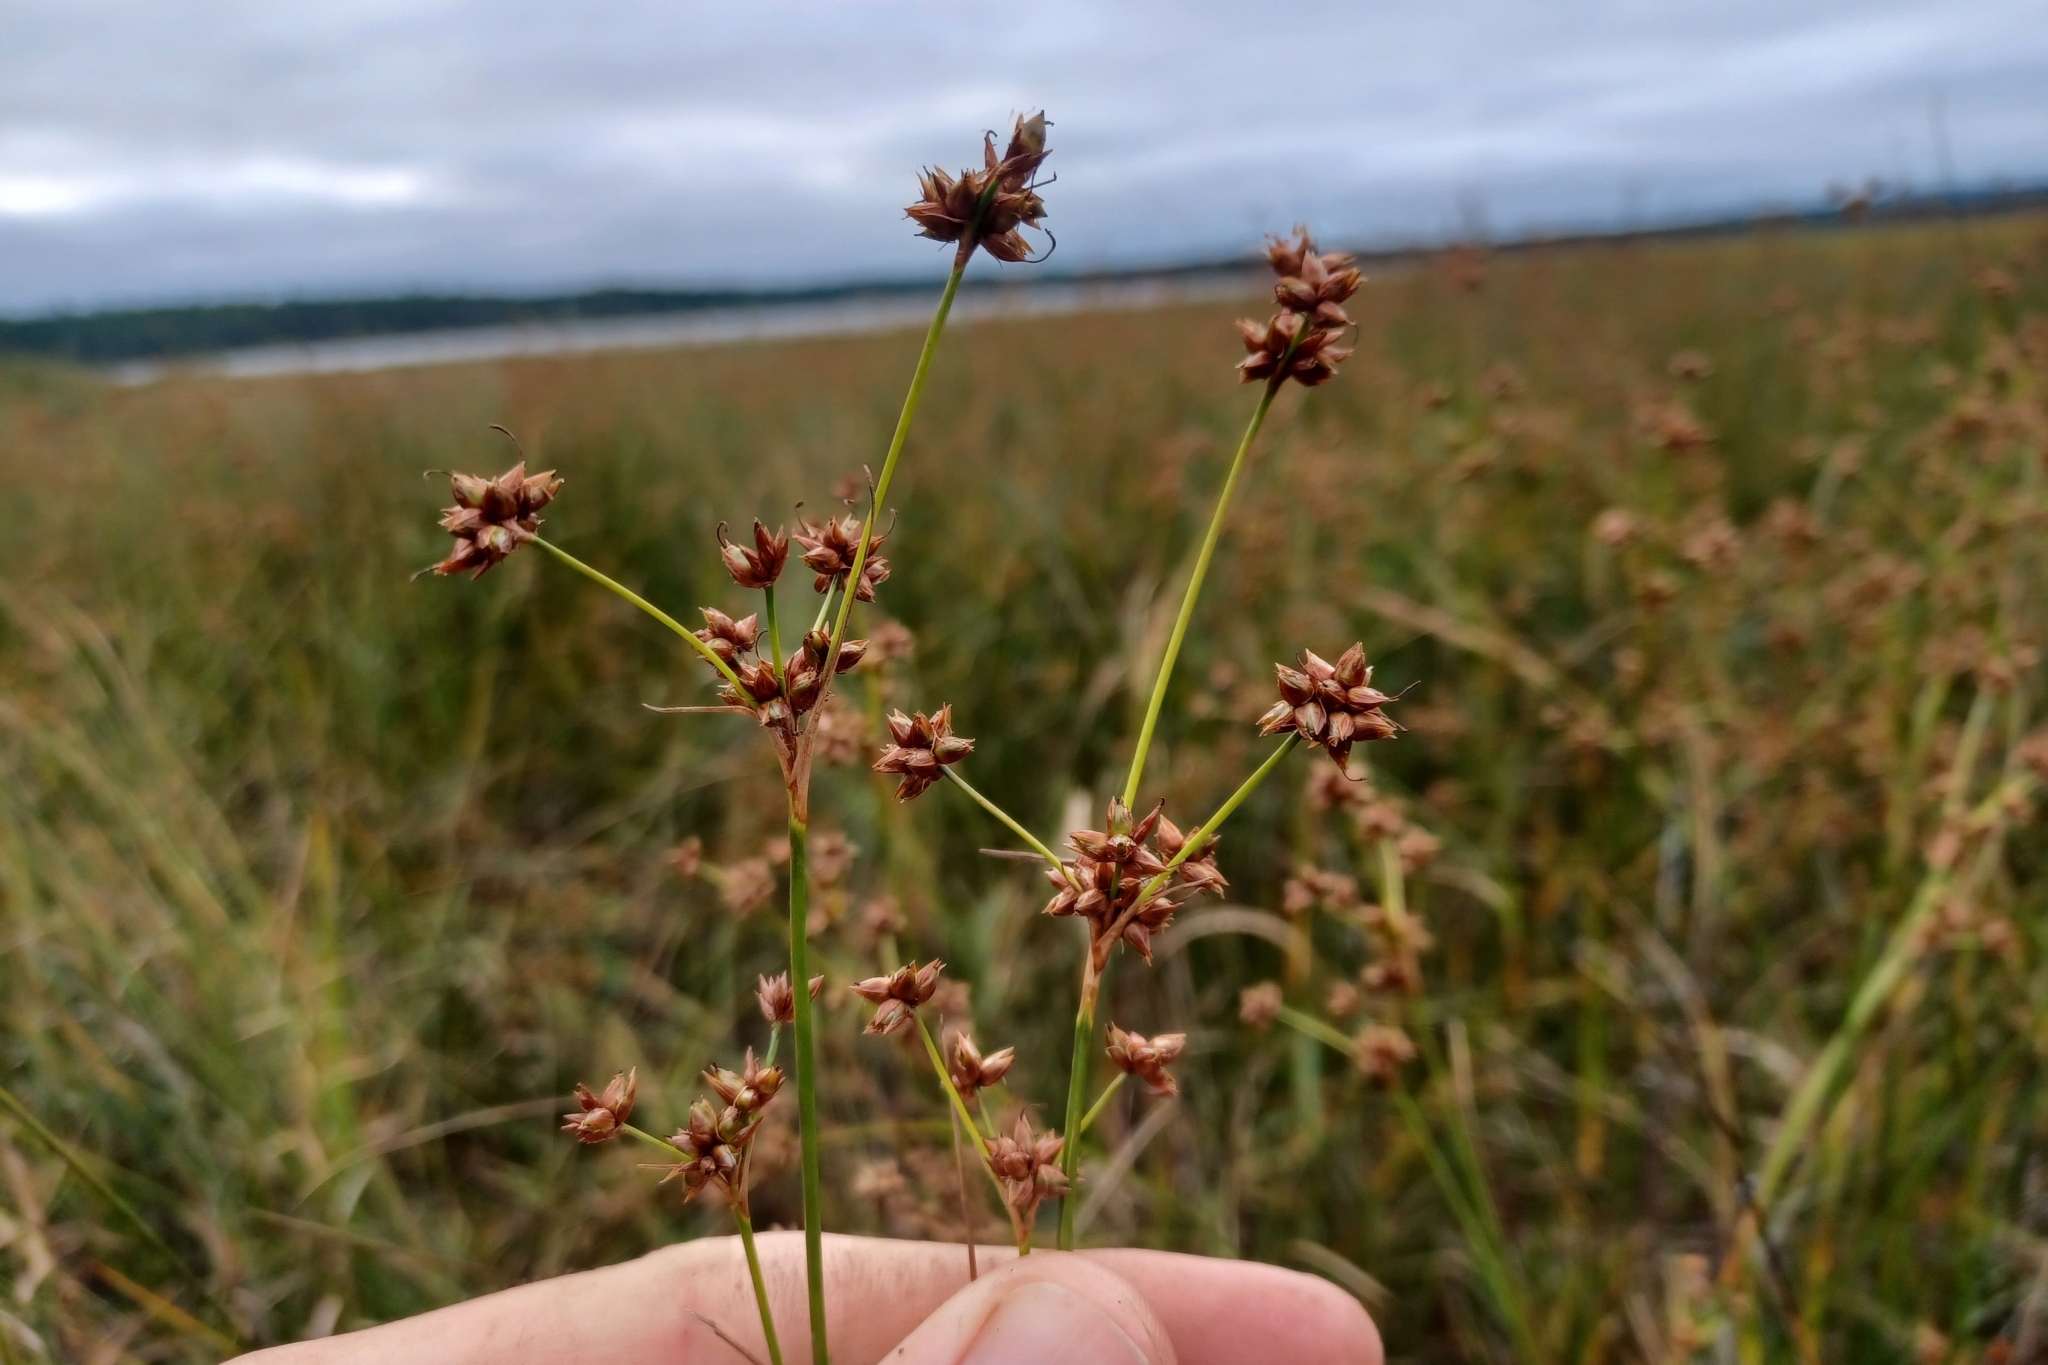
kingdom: Plantae
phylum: Tracheophyta
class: Liliopsida
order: Poales
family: Cyperaceae
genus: Cladium
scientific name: Cladium mariscoides
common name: Smooth sawgrass
